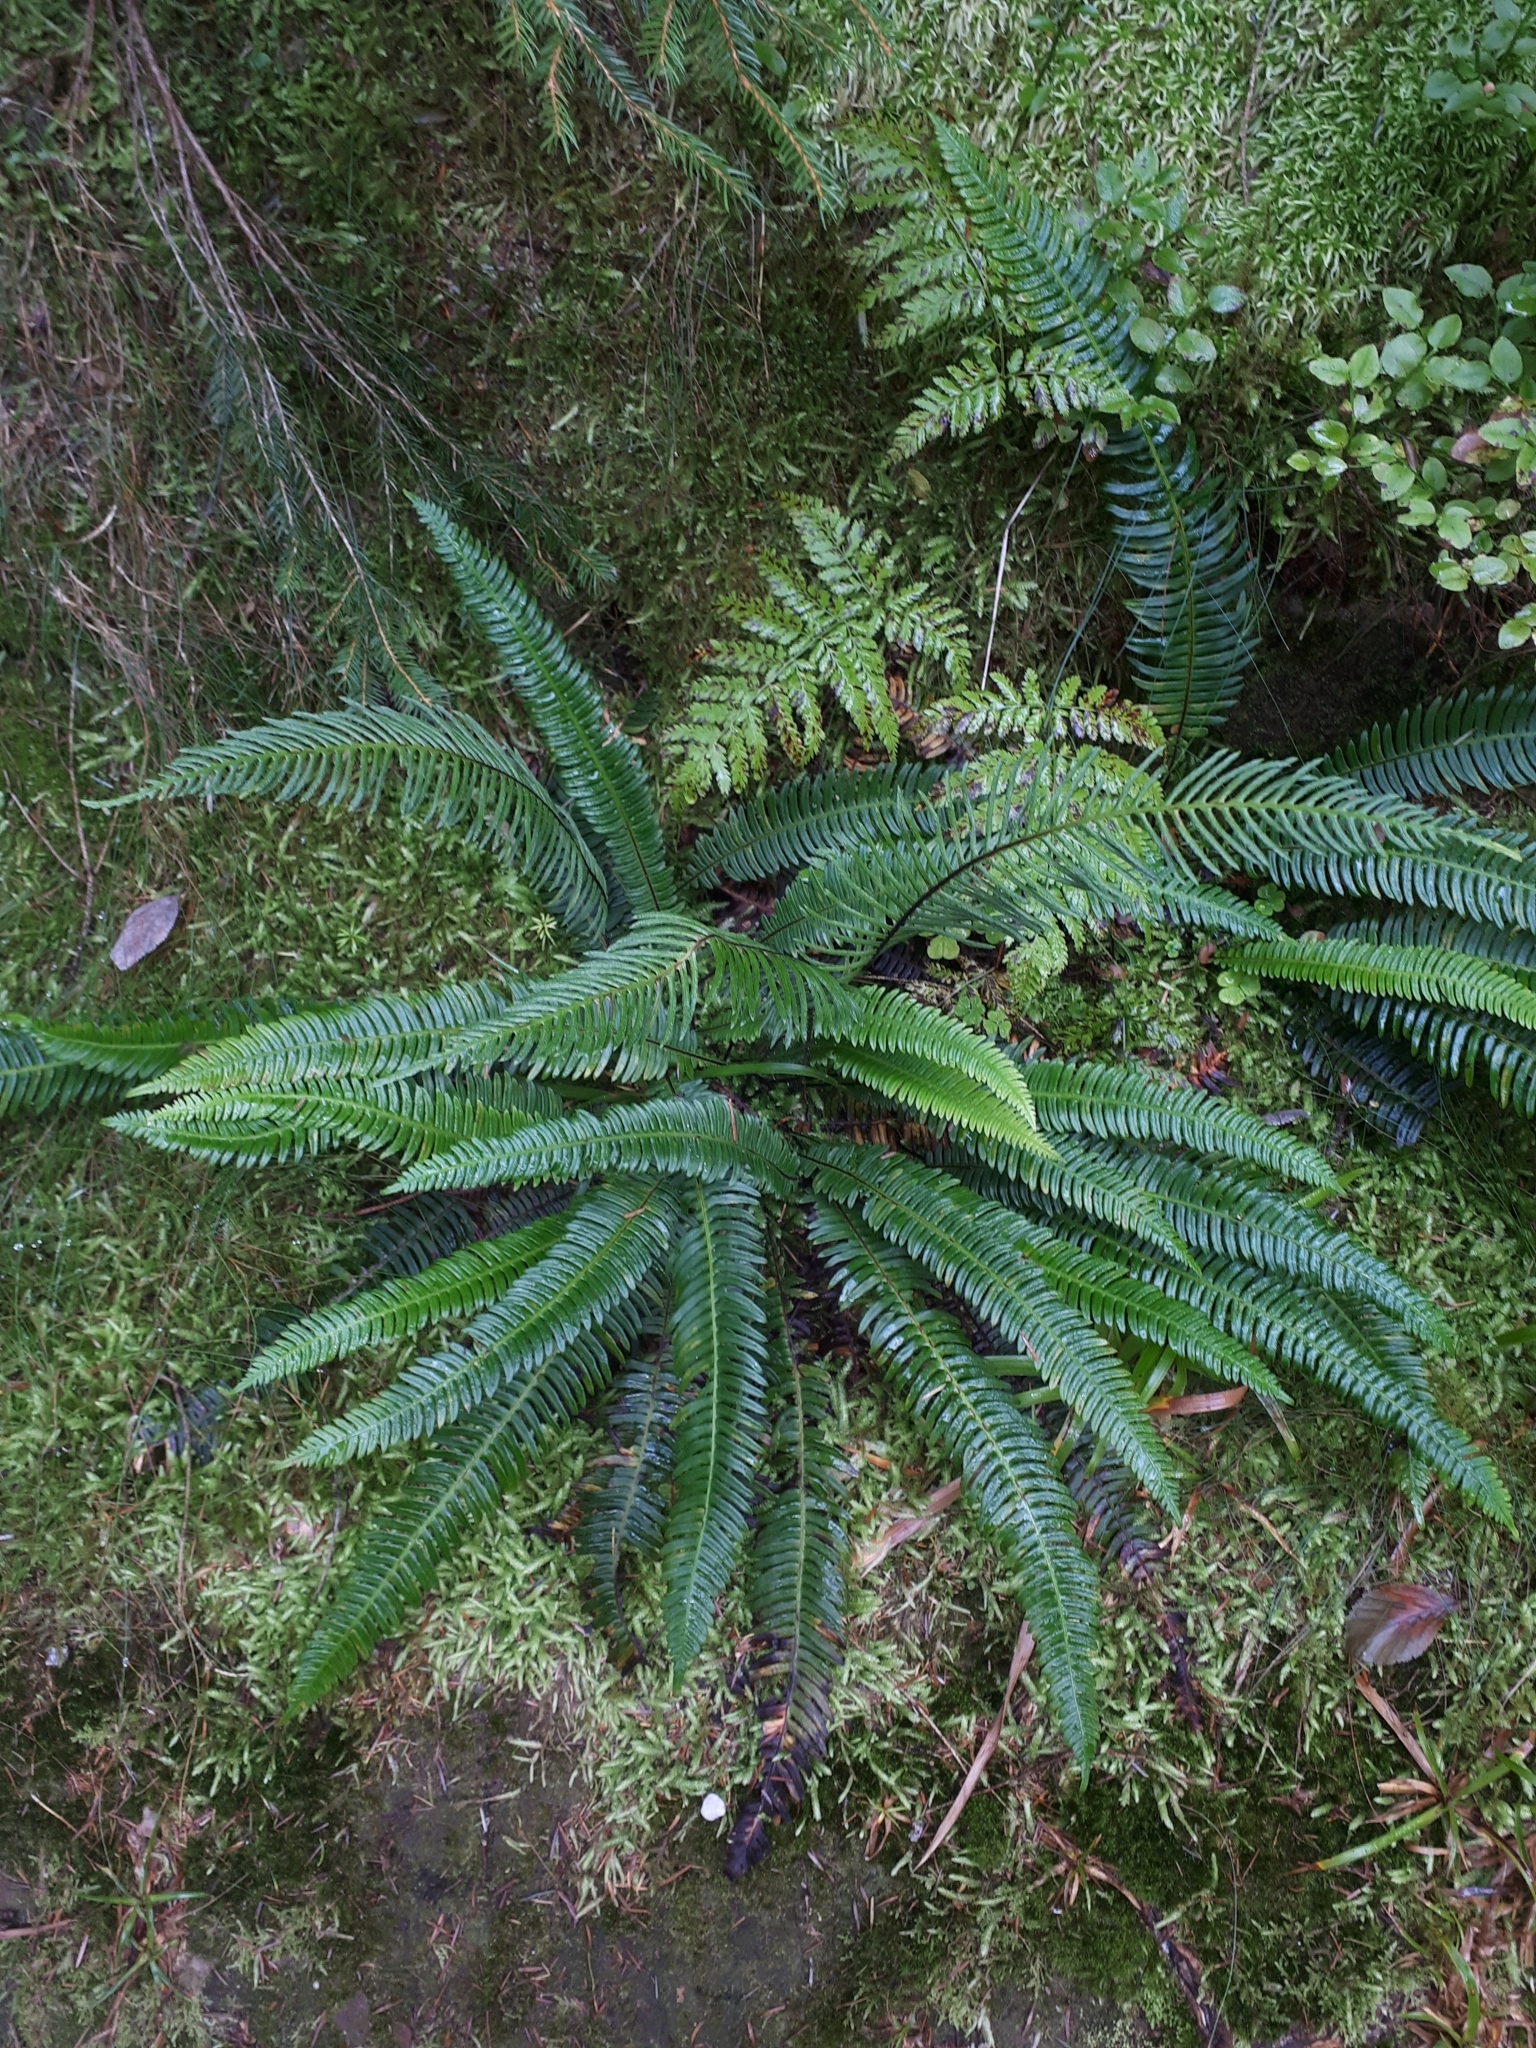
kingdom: Plantae
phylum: Tracheophyta
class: Polypodiopsida
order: Polypodiales
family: Blechnaceae
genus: Struthiopteris
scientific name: Struthiopteris spicant
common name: Deer fern
